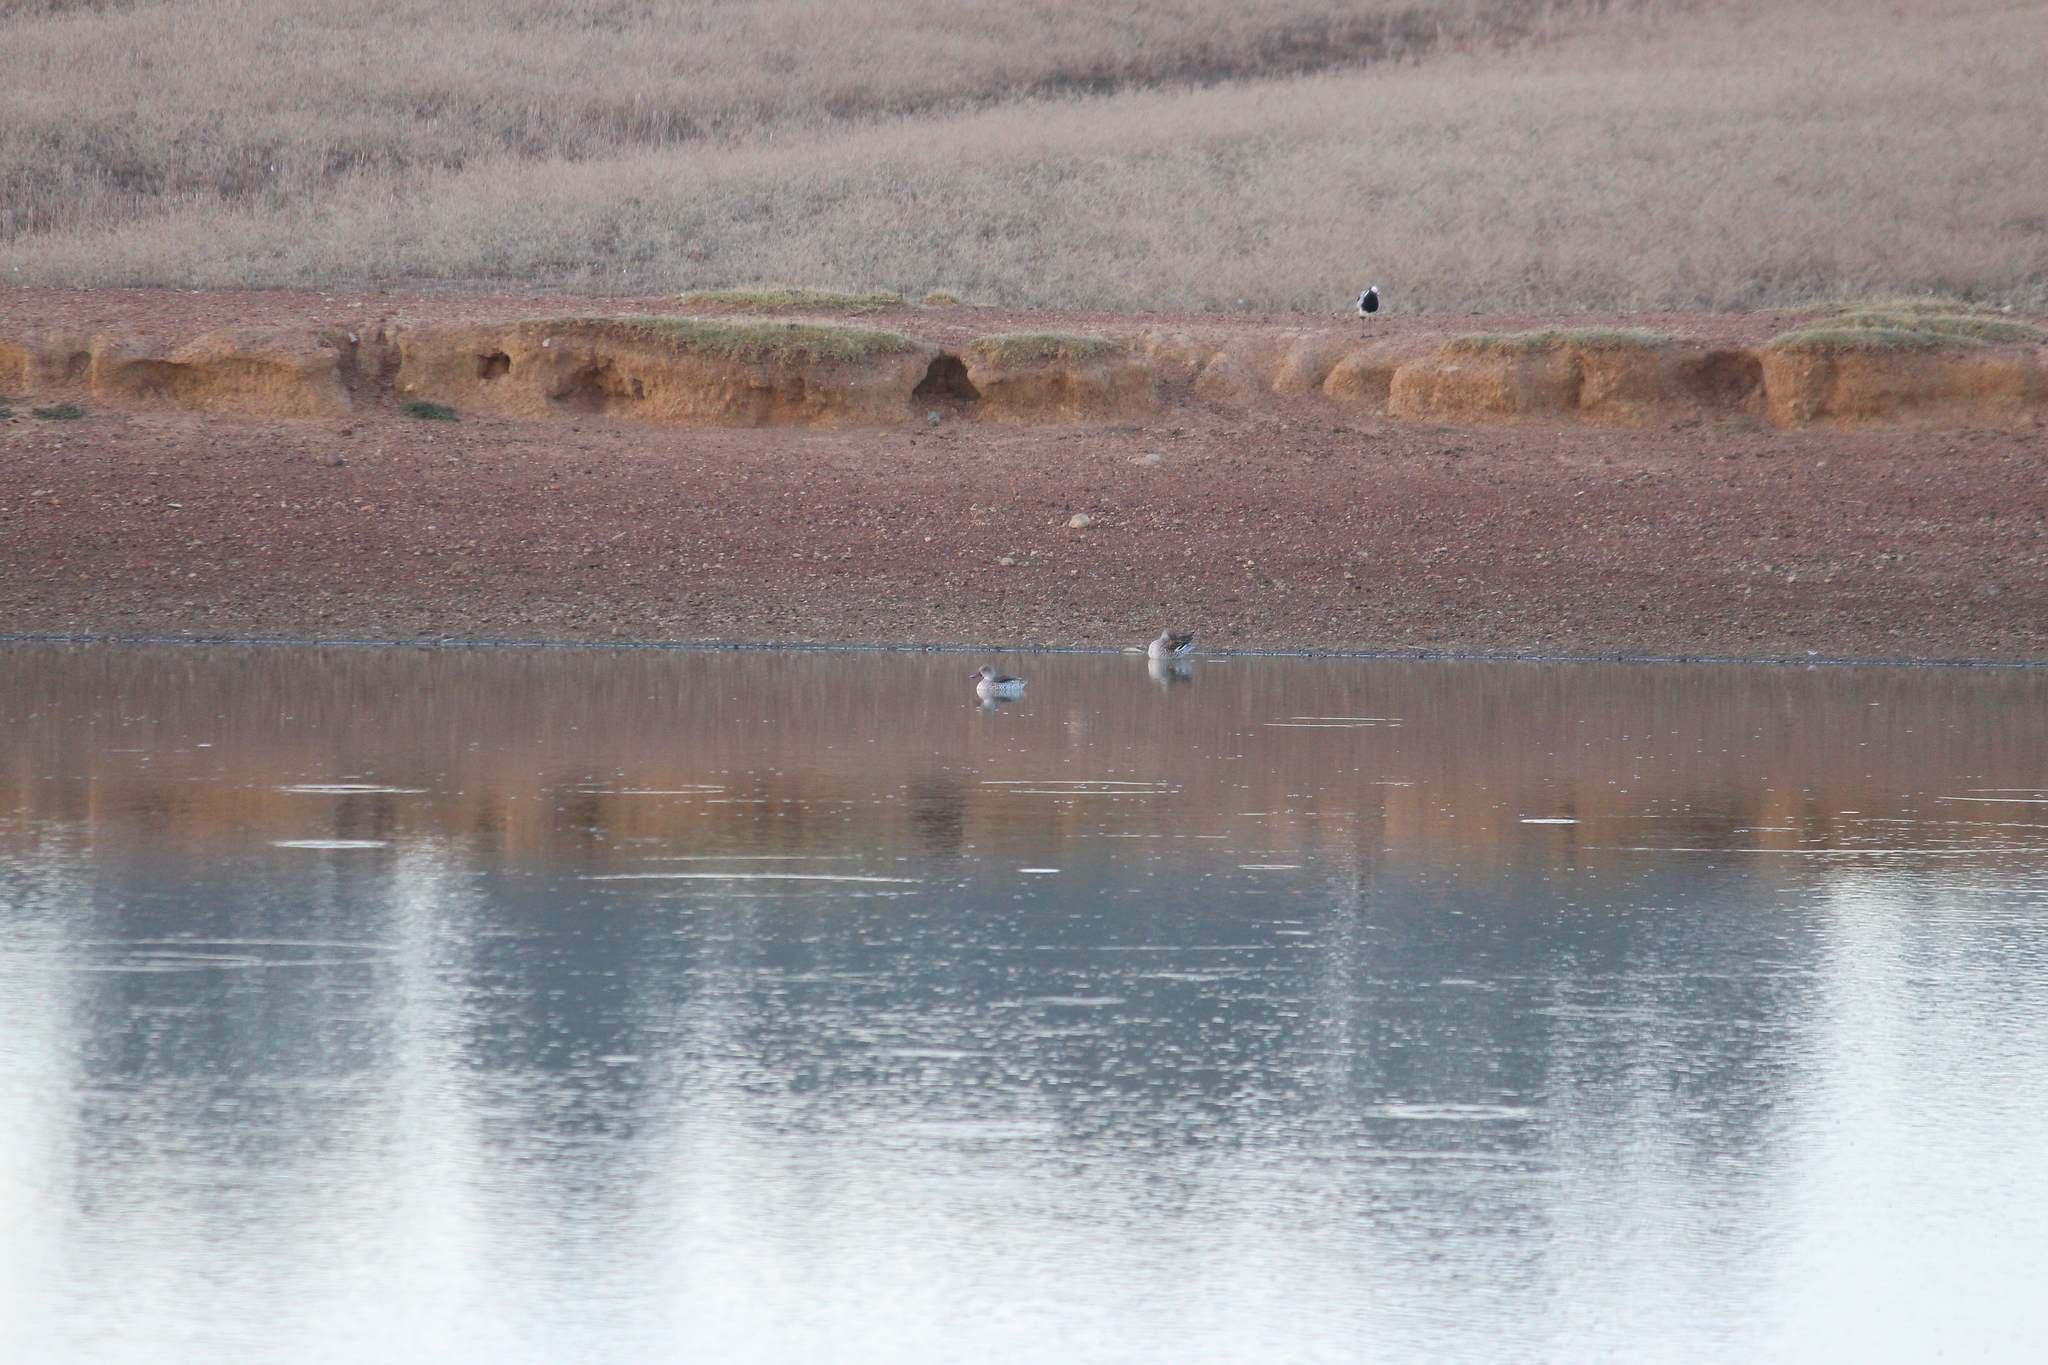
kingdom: Animalia
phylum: Chordata
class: Aves
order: Anseriformes
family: Anatidae
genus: Anas
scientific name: Anas capensis
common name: Cape teal
